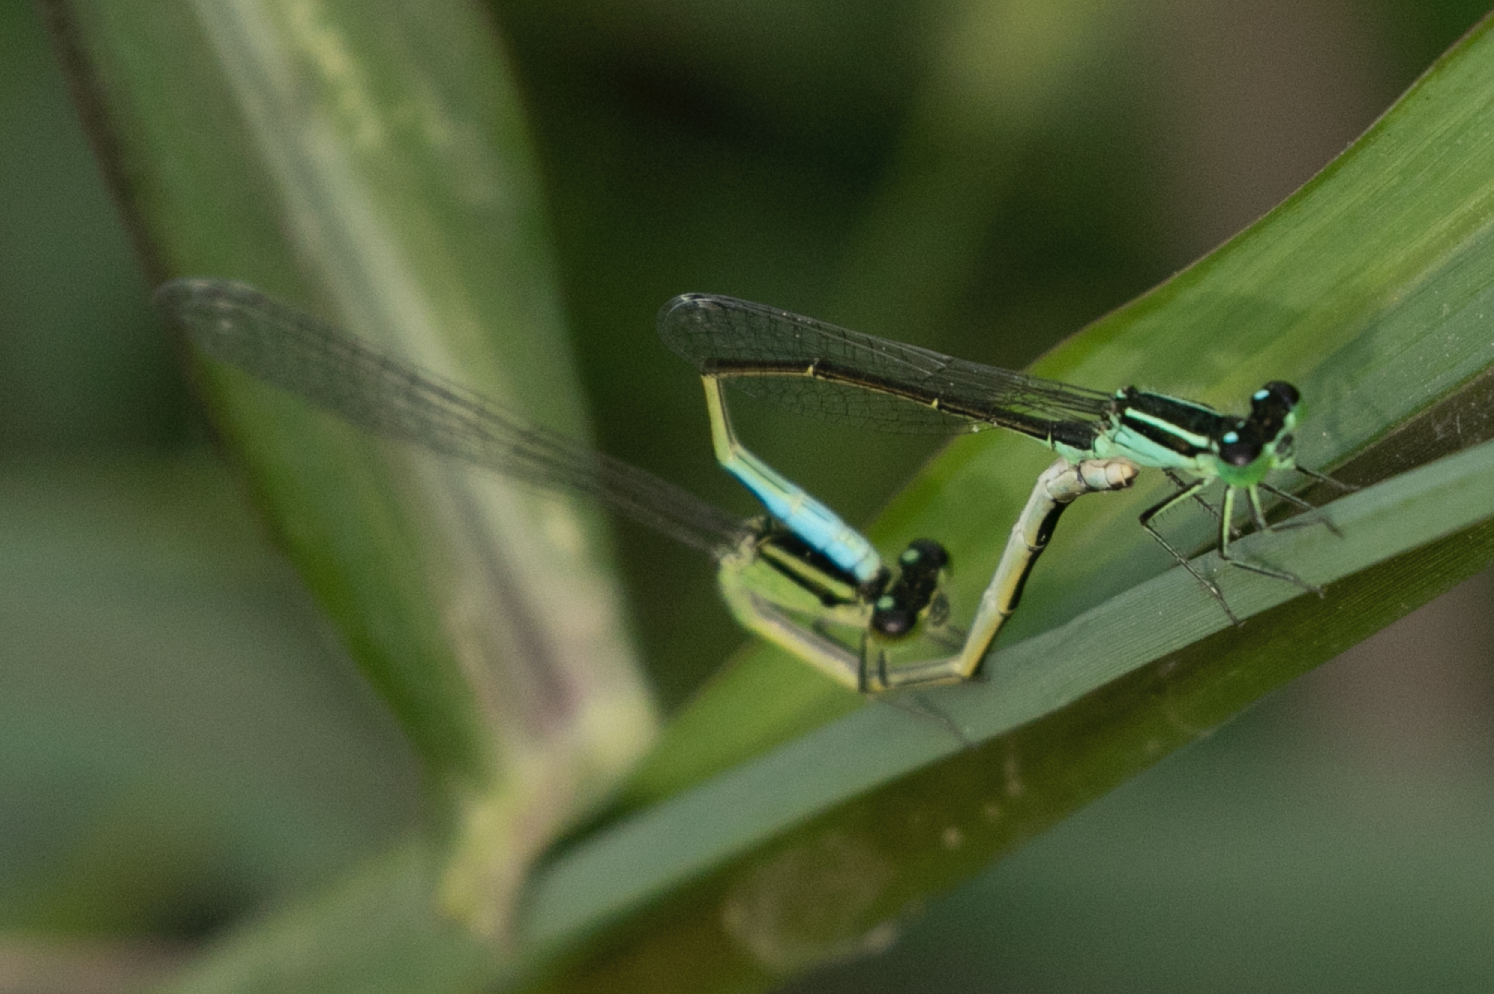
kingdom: Animalia
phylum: Arthropoda
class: Insecta
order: Odonata
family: Coenagrionidae
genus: Ischnura
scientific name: Ischnura elegans
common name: Blue-tailed damselfly
